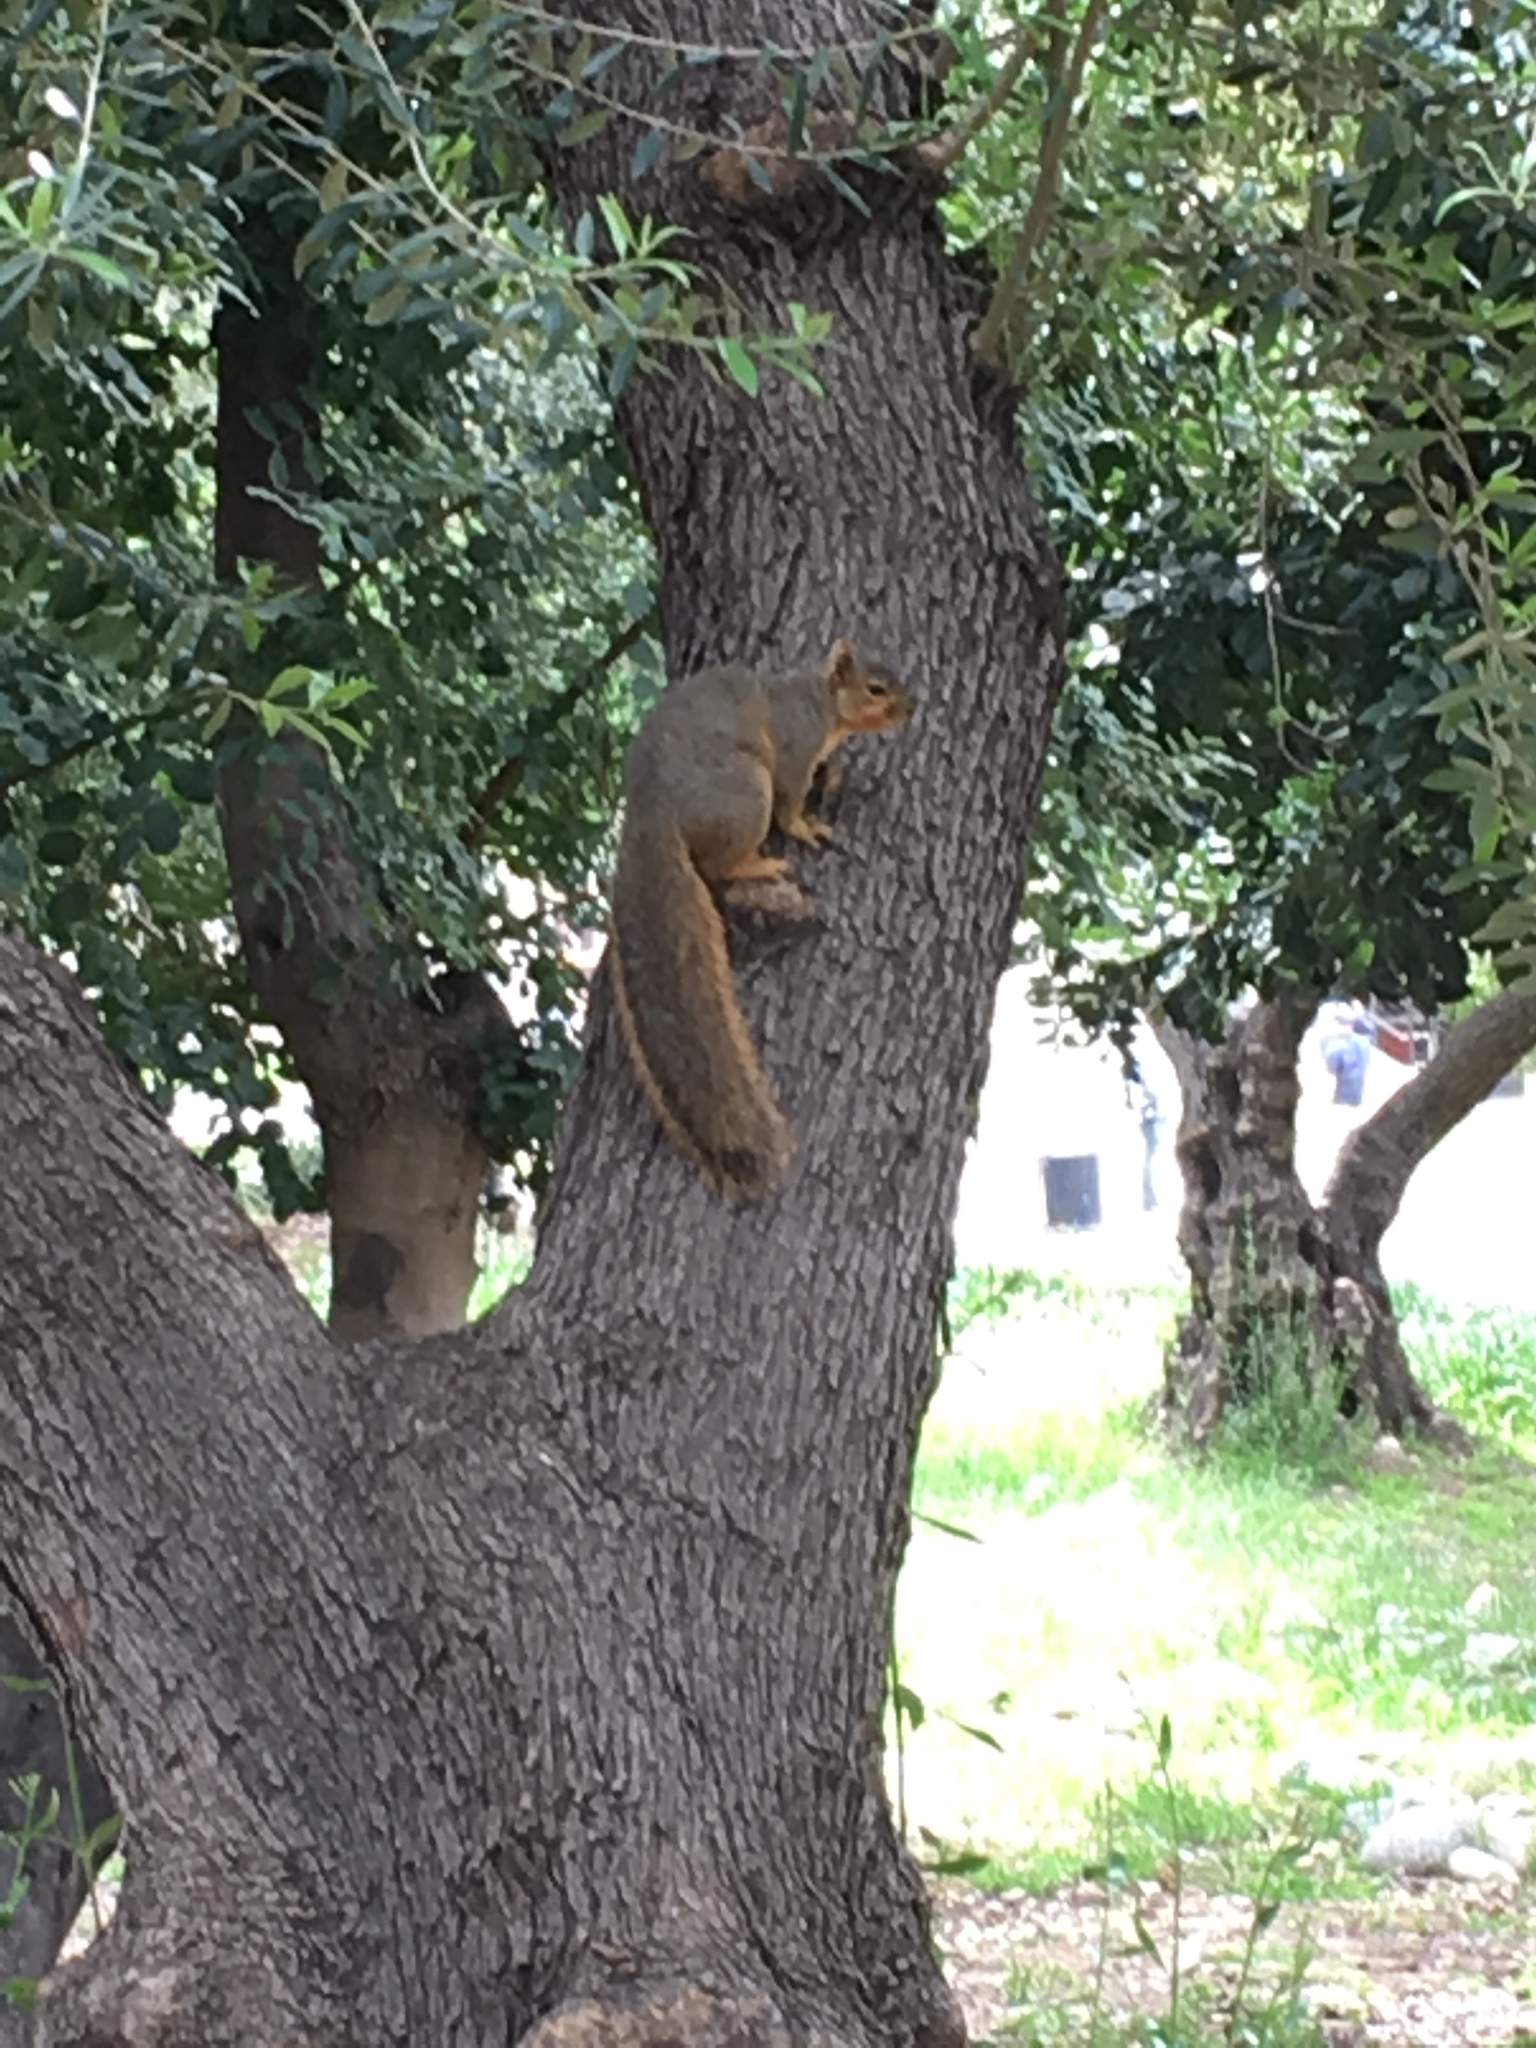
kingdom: Animalia
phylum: Chordata
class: Mammalia
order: Rodentia
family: Sciuridae
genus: Sciurus
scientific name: Sciurus niger
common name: Fox squirrel
